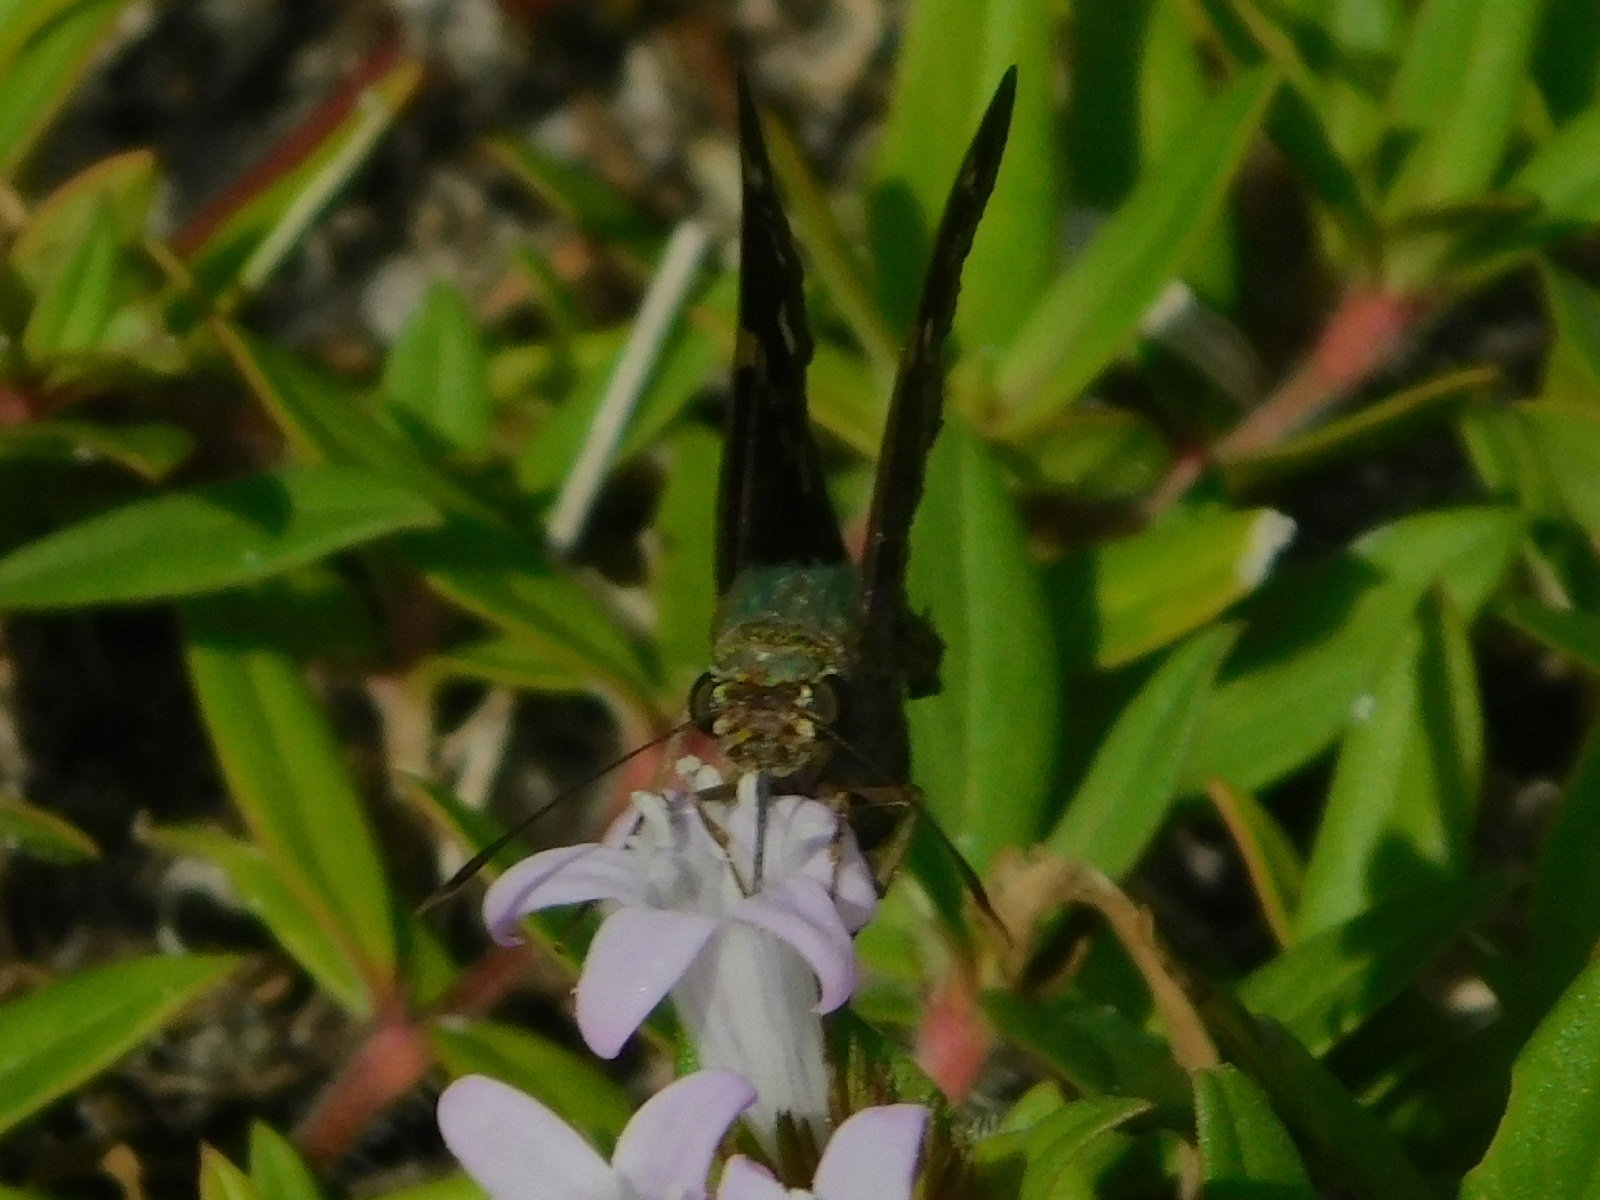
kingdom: Animalia
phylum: Arthropoda
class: Insecta
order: Lepidoptera
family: Hesperiidae
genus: Urbanus
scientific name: Urbanus proteus
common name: Long-tailed skipper
